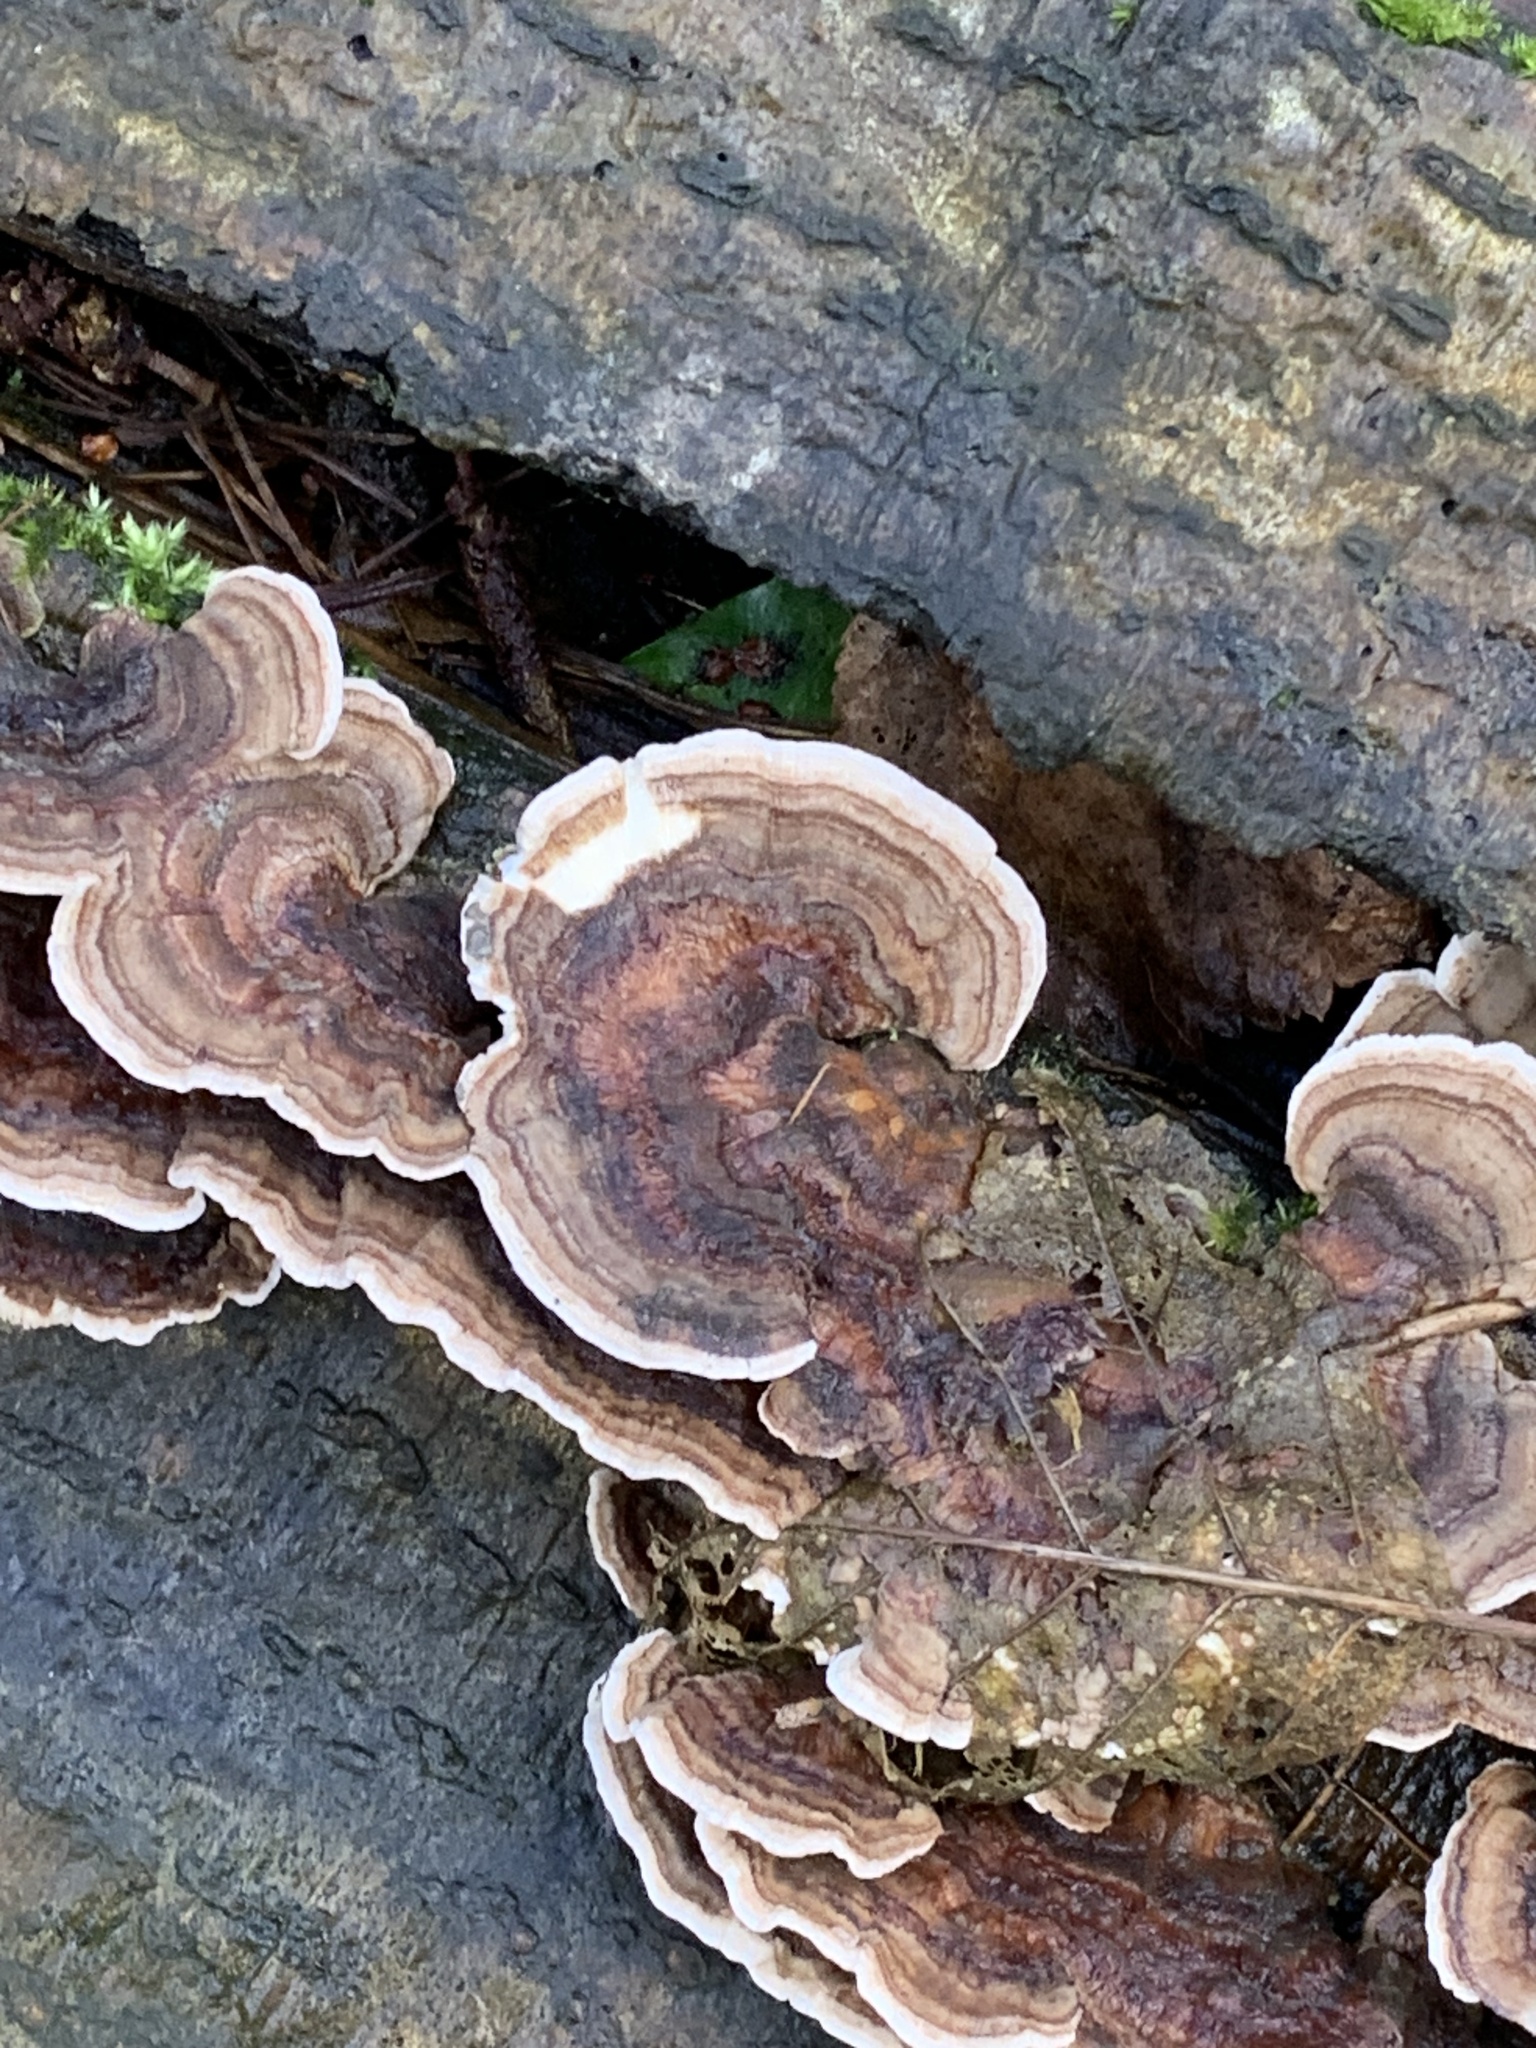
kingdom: Fungi
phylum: Basidiomycota
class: Agaricomycetes
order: Polyporales
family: Polyporaceae
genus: Trametes
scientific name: Trametes versicolor
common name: Turkeytail
